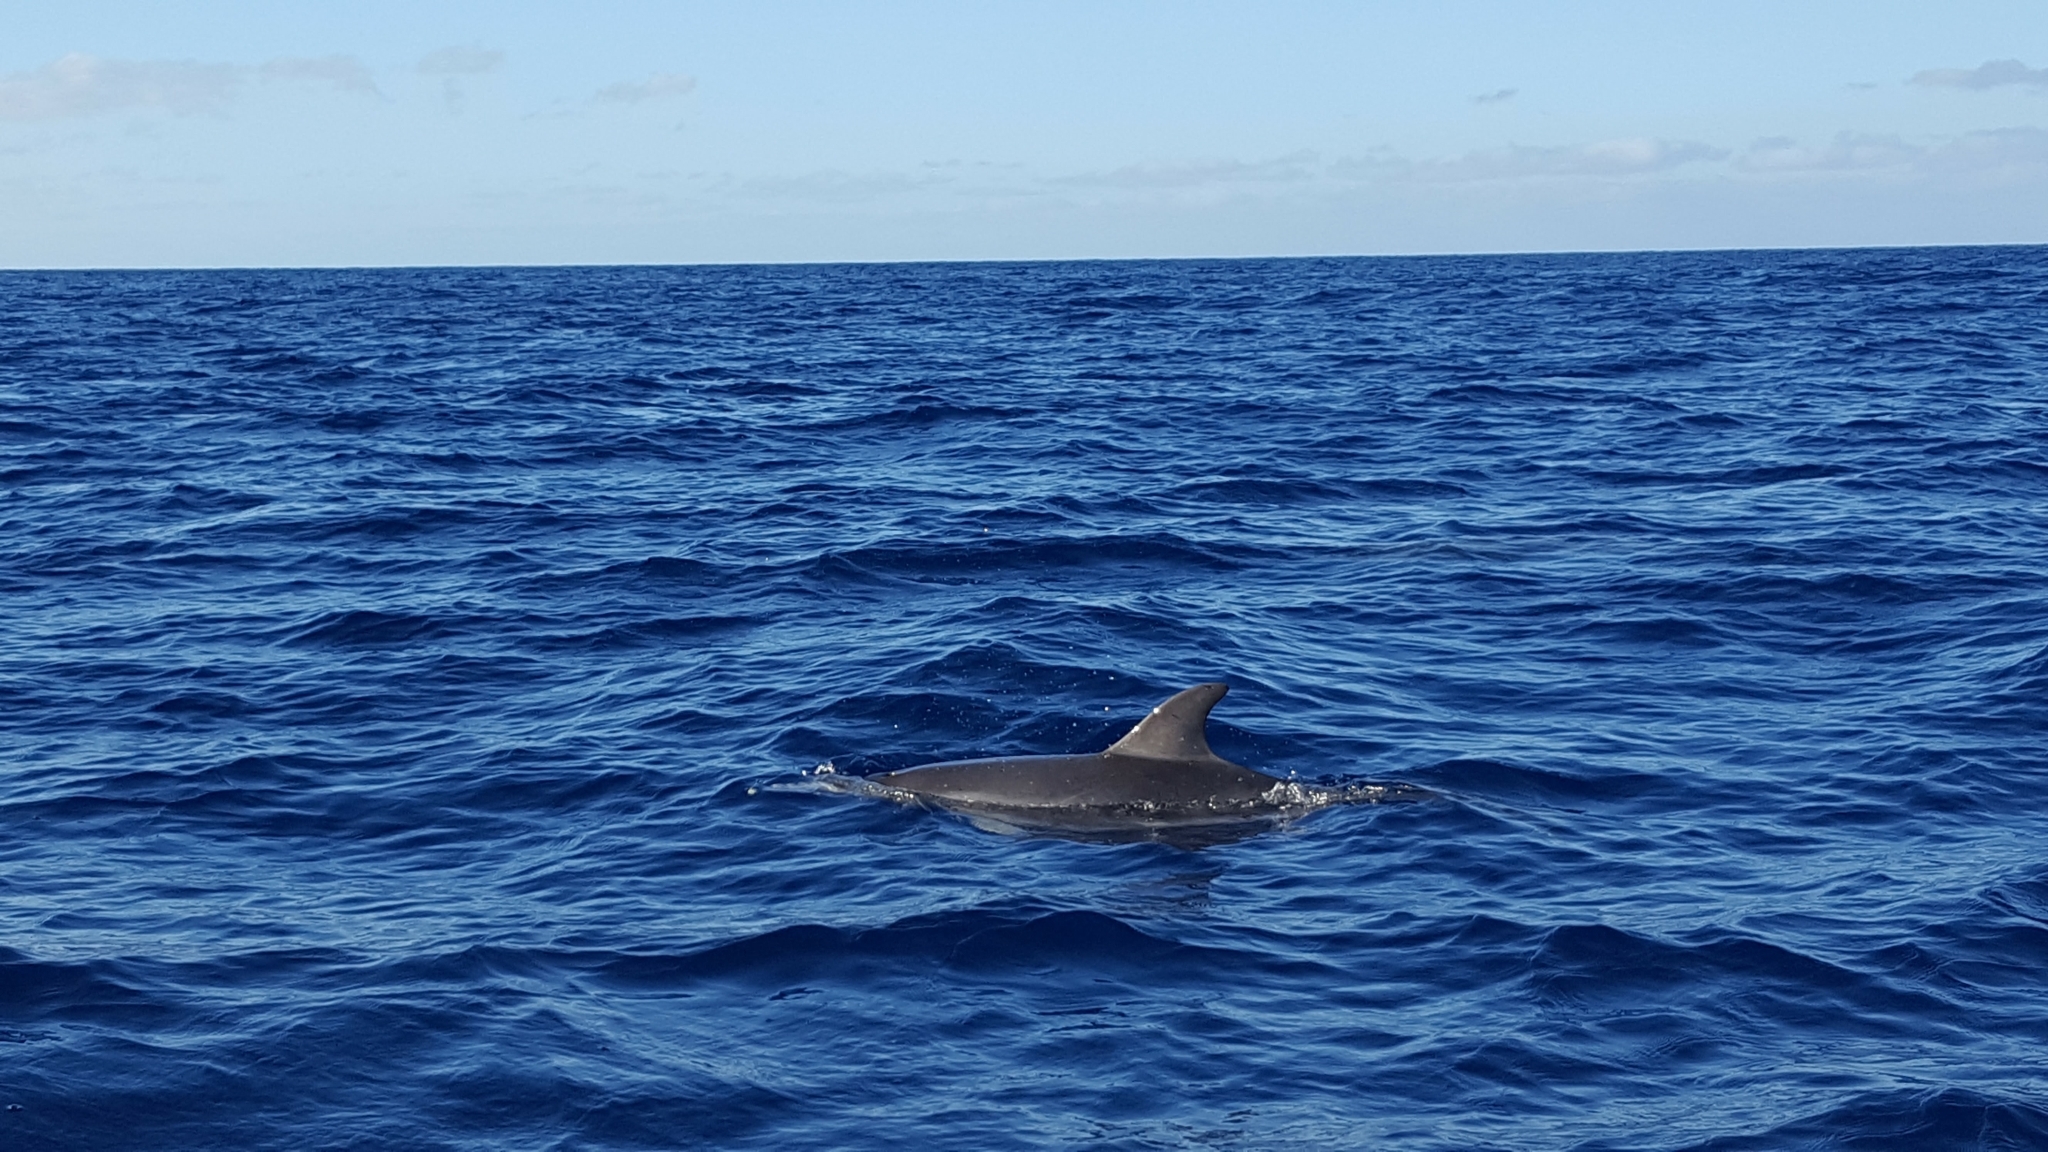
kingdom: Animalia
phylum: Chordata
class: Mammalia
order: Cetacea
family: Delphinidae
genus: Stenella
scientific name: Stenella frontalis
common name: Atlantic spotted dolphin
